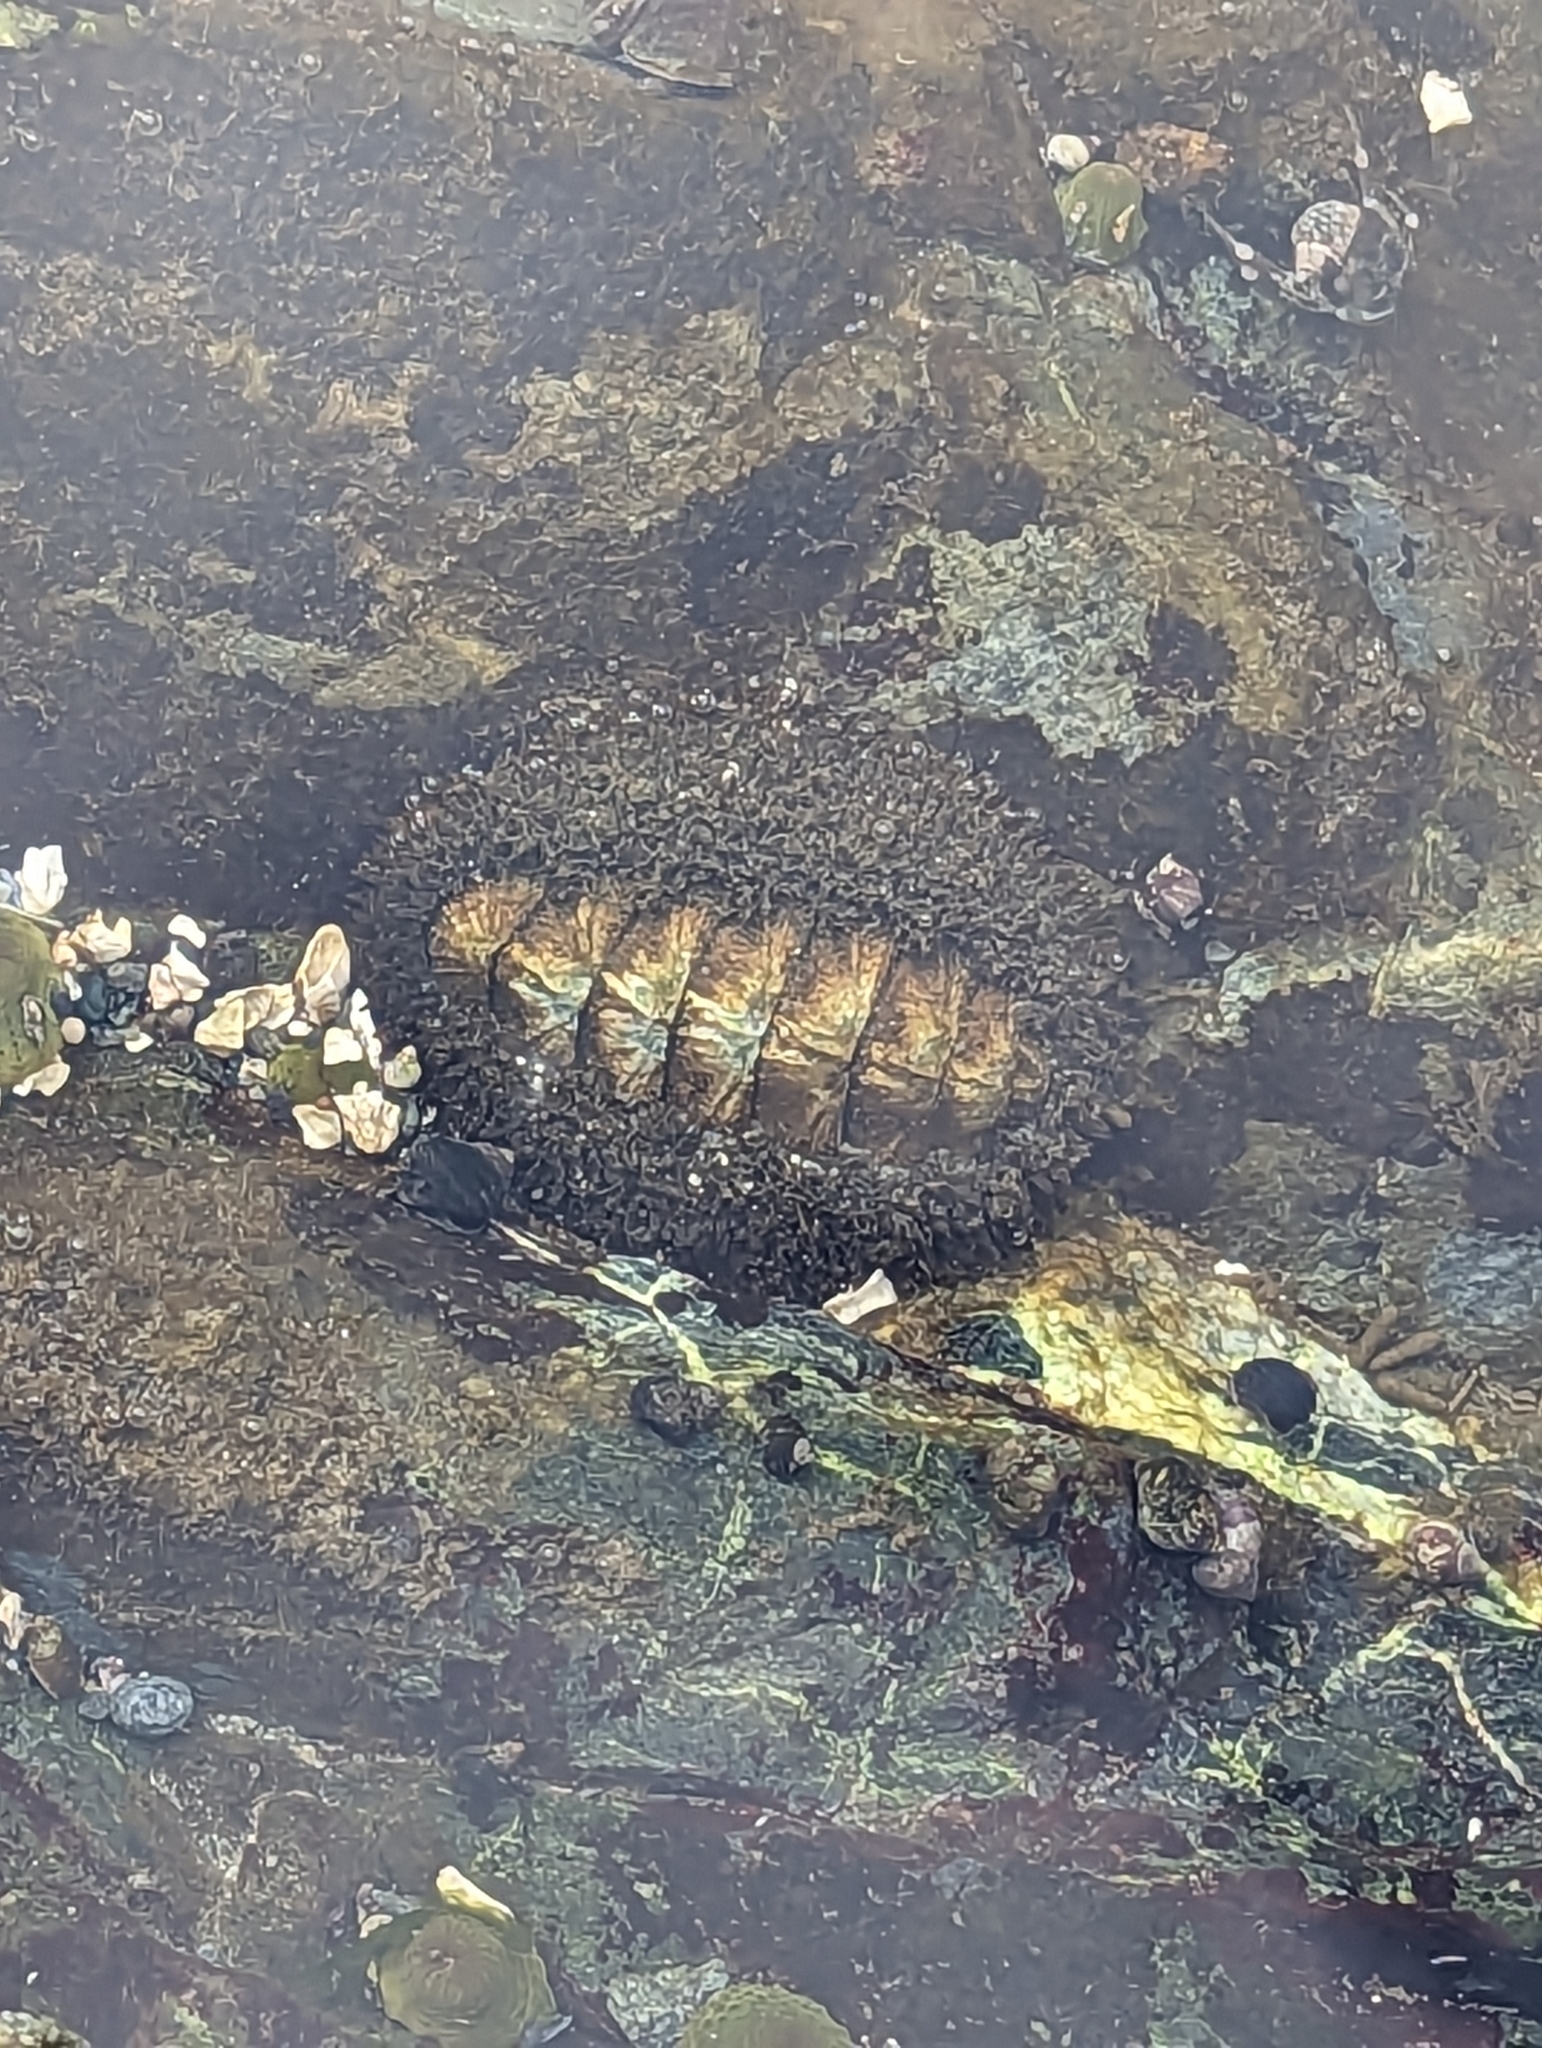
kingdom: Animalia
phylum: Mollusca
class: Polyplacophora
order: Chitonida
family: Mopaliidae
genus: Mopalia
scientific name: Mopalia muscosa
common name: Mossy chiton
